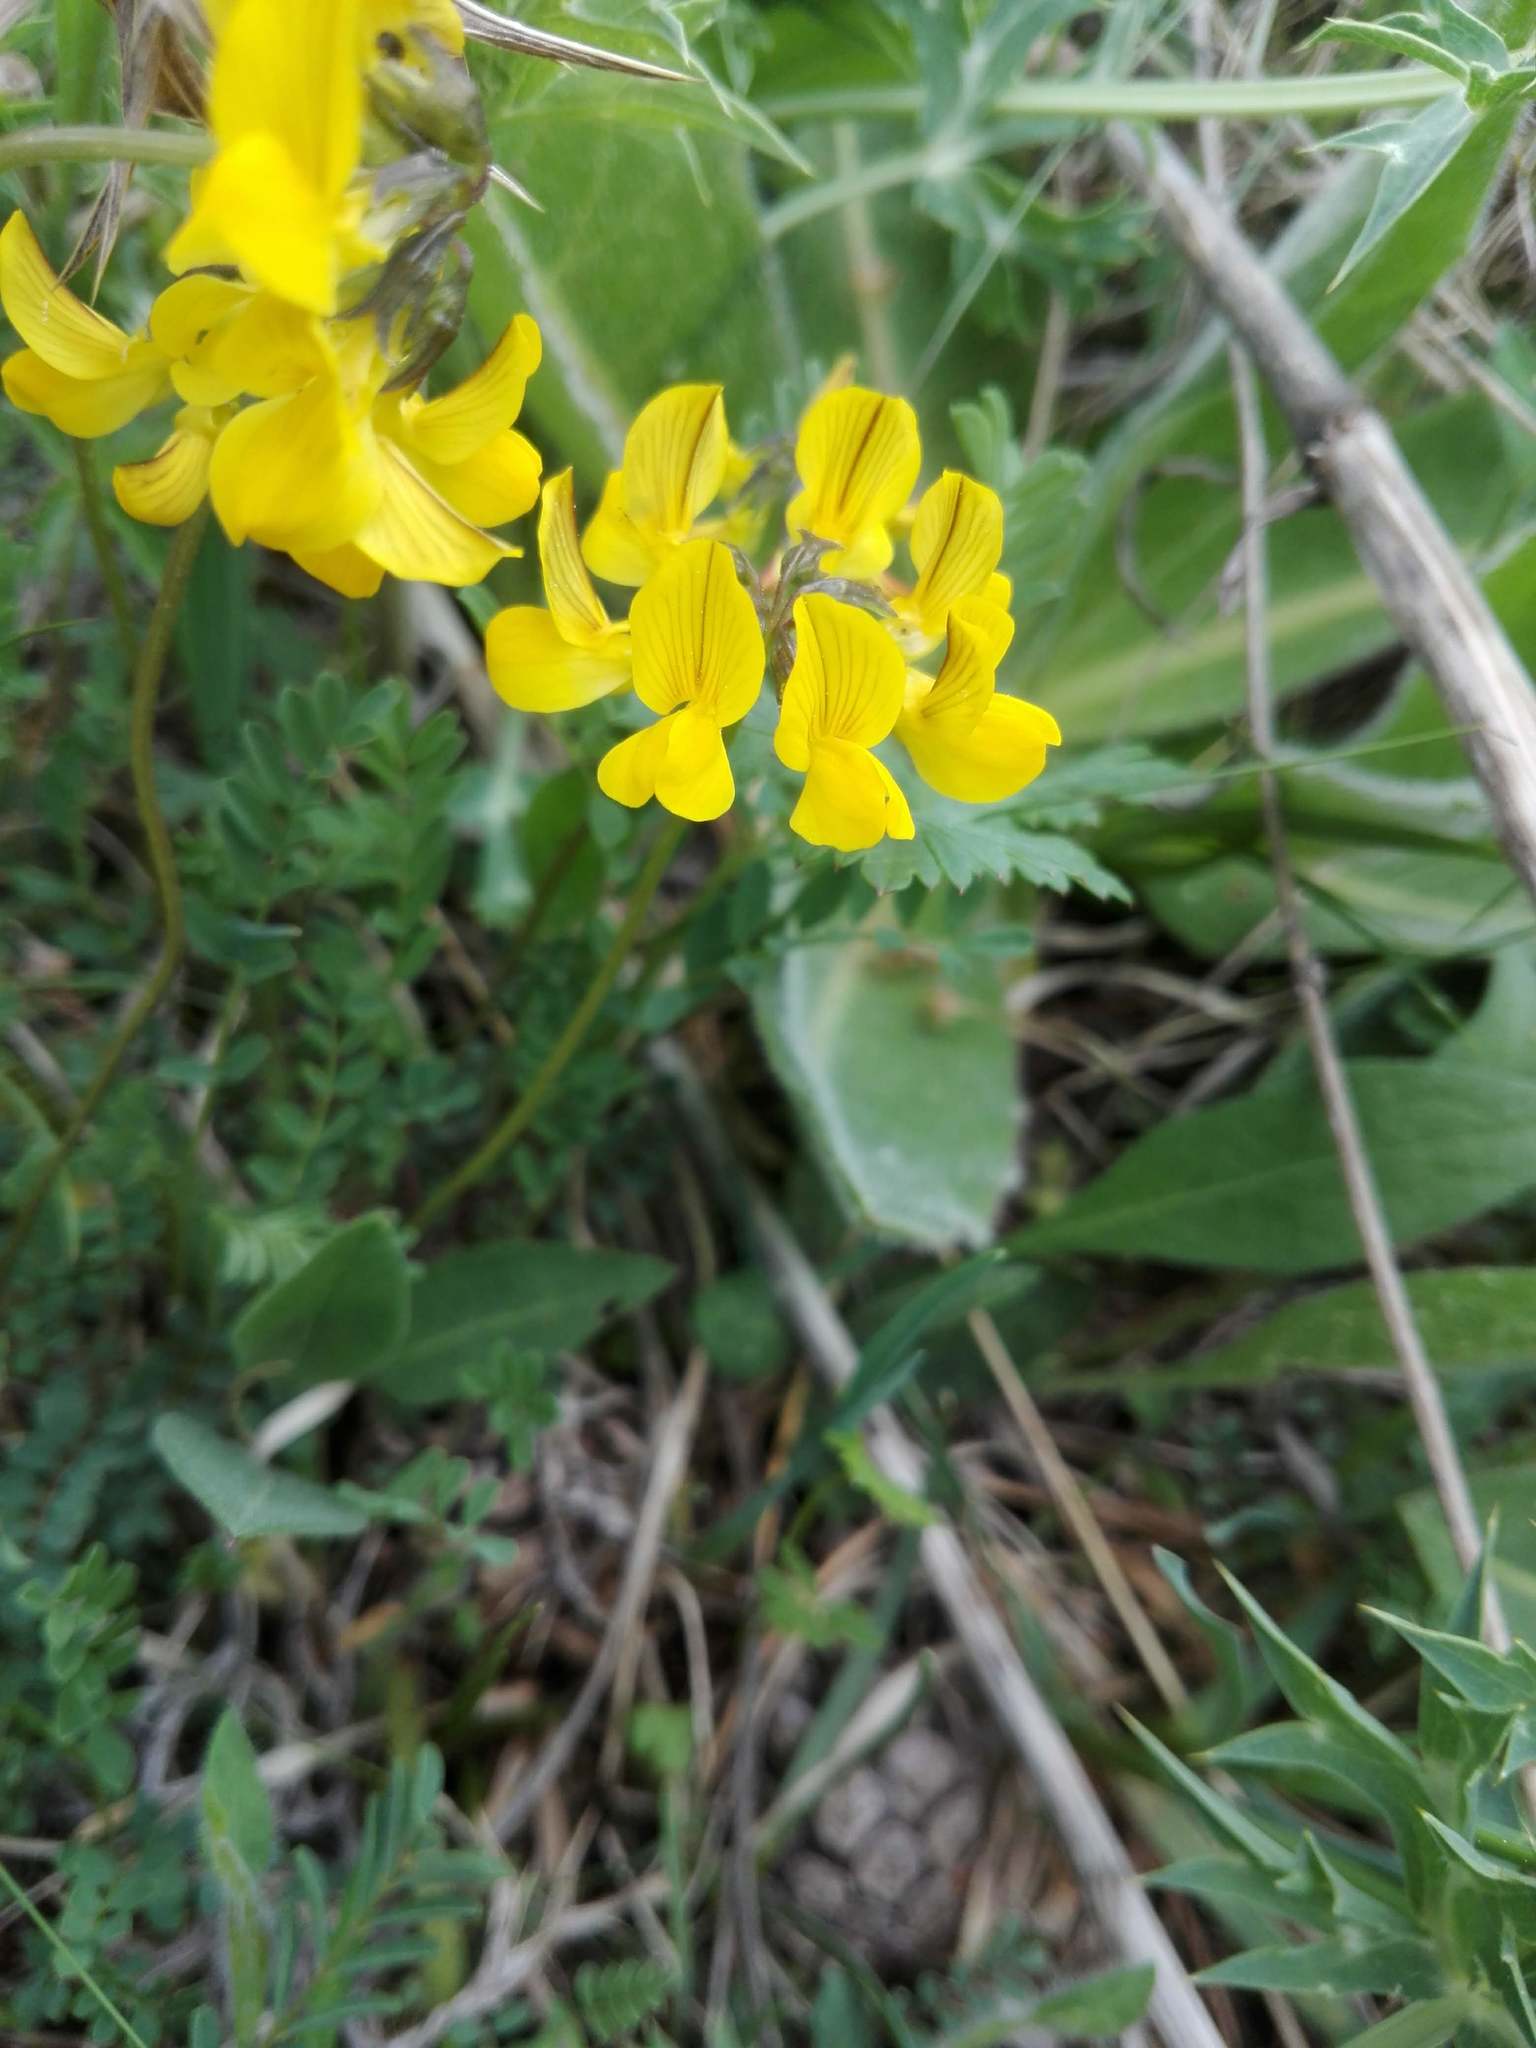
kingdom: Plantae
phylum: Tracheophyta
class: Magnoliopsida
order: Fabales
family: Fabaceae
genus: Hippocrepis
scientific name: Hippocrepis comosa
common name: Horseshoe vetch
